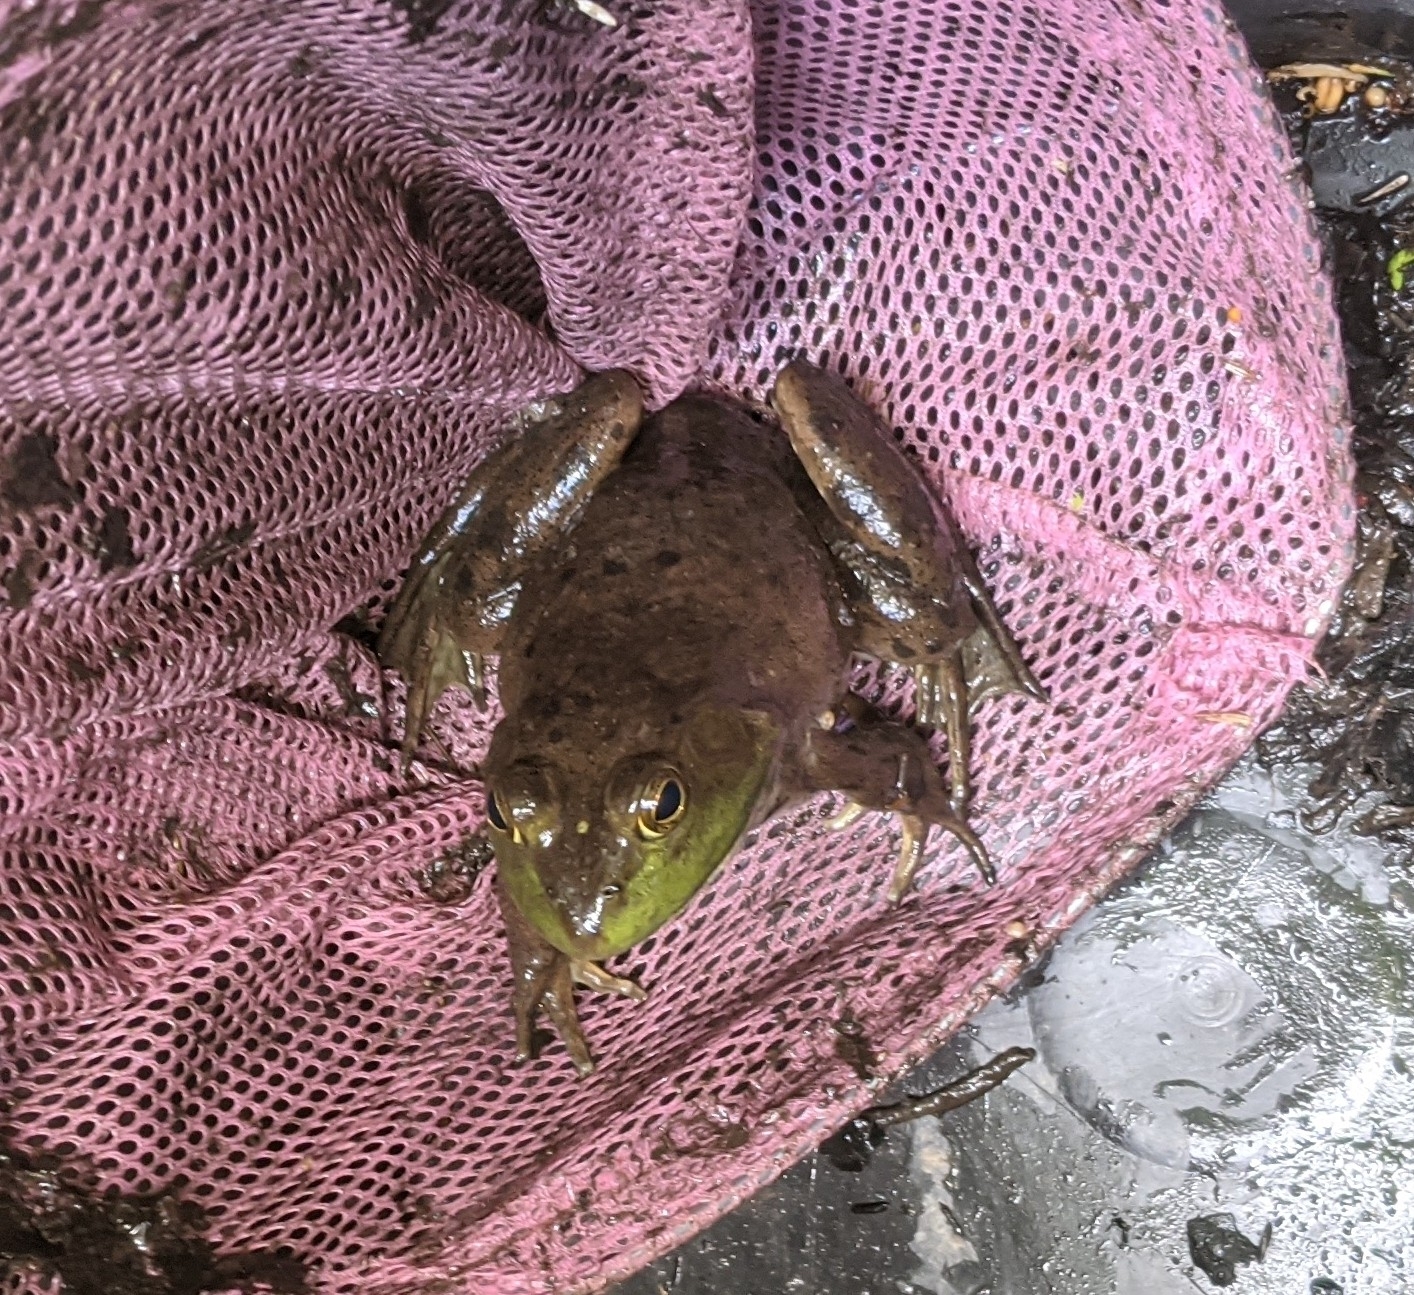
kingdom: Animalia
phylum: Chordata
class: Amphibia
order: Anura
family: Ranidae
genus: Lithobates
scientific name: Lithobates catesbeianus
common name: American bullfrog
